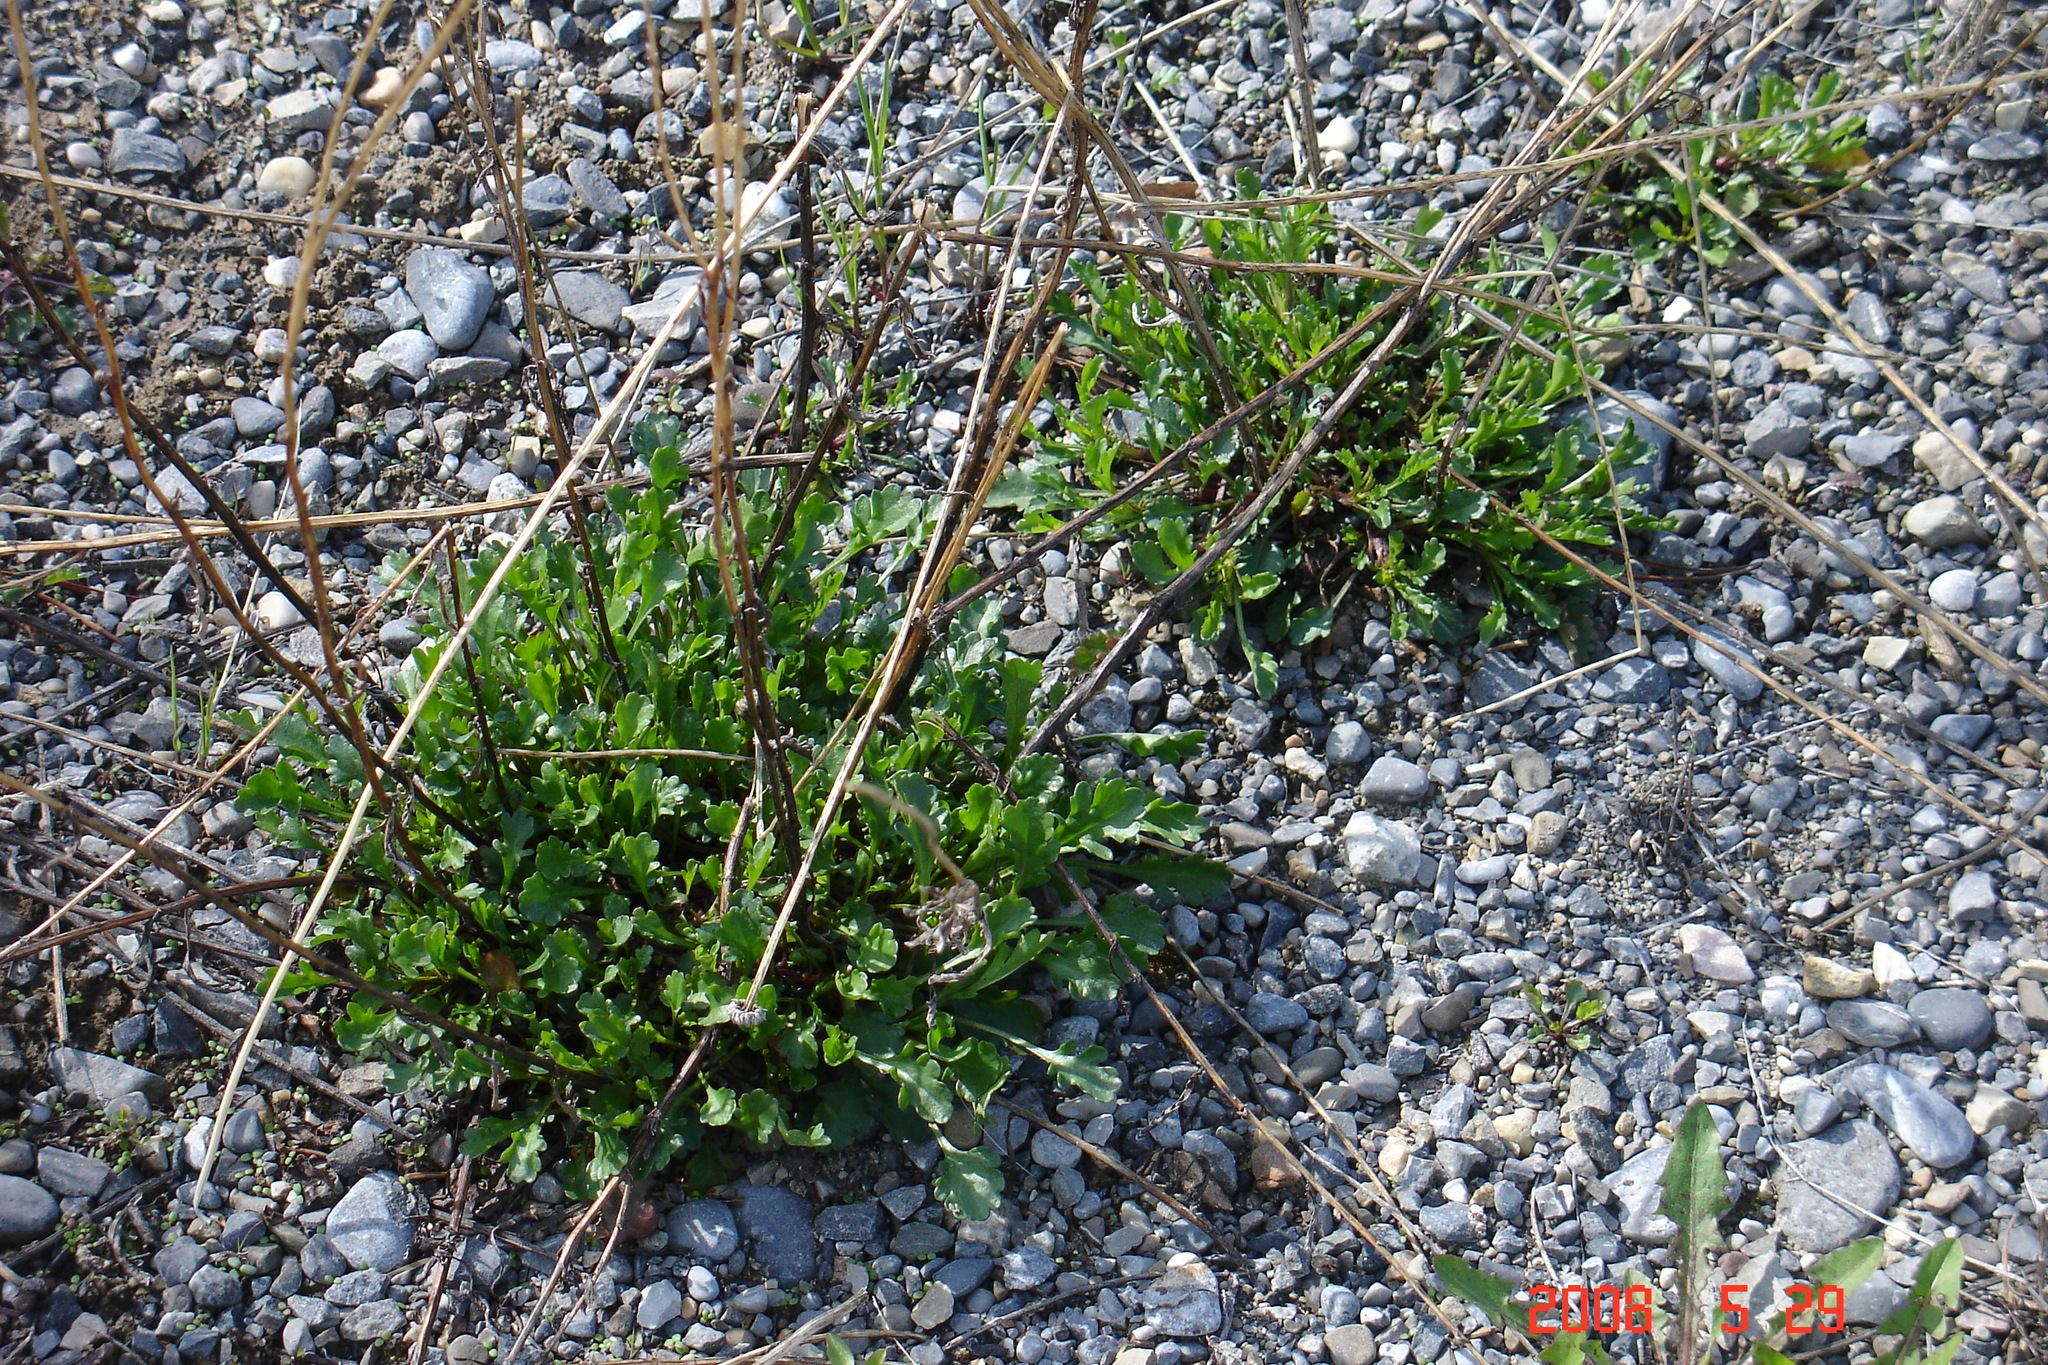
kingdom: Plantae
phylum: Tracheophyta
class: Magnoliopsida
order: Asterales
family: Asteraceae
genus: Leucanthemum
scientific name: Leucanthemum vulgare
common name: Oxeye daisy
